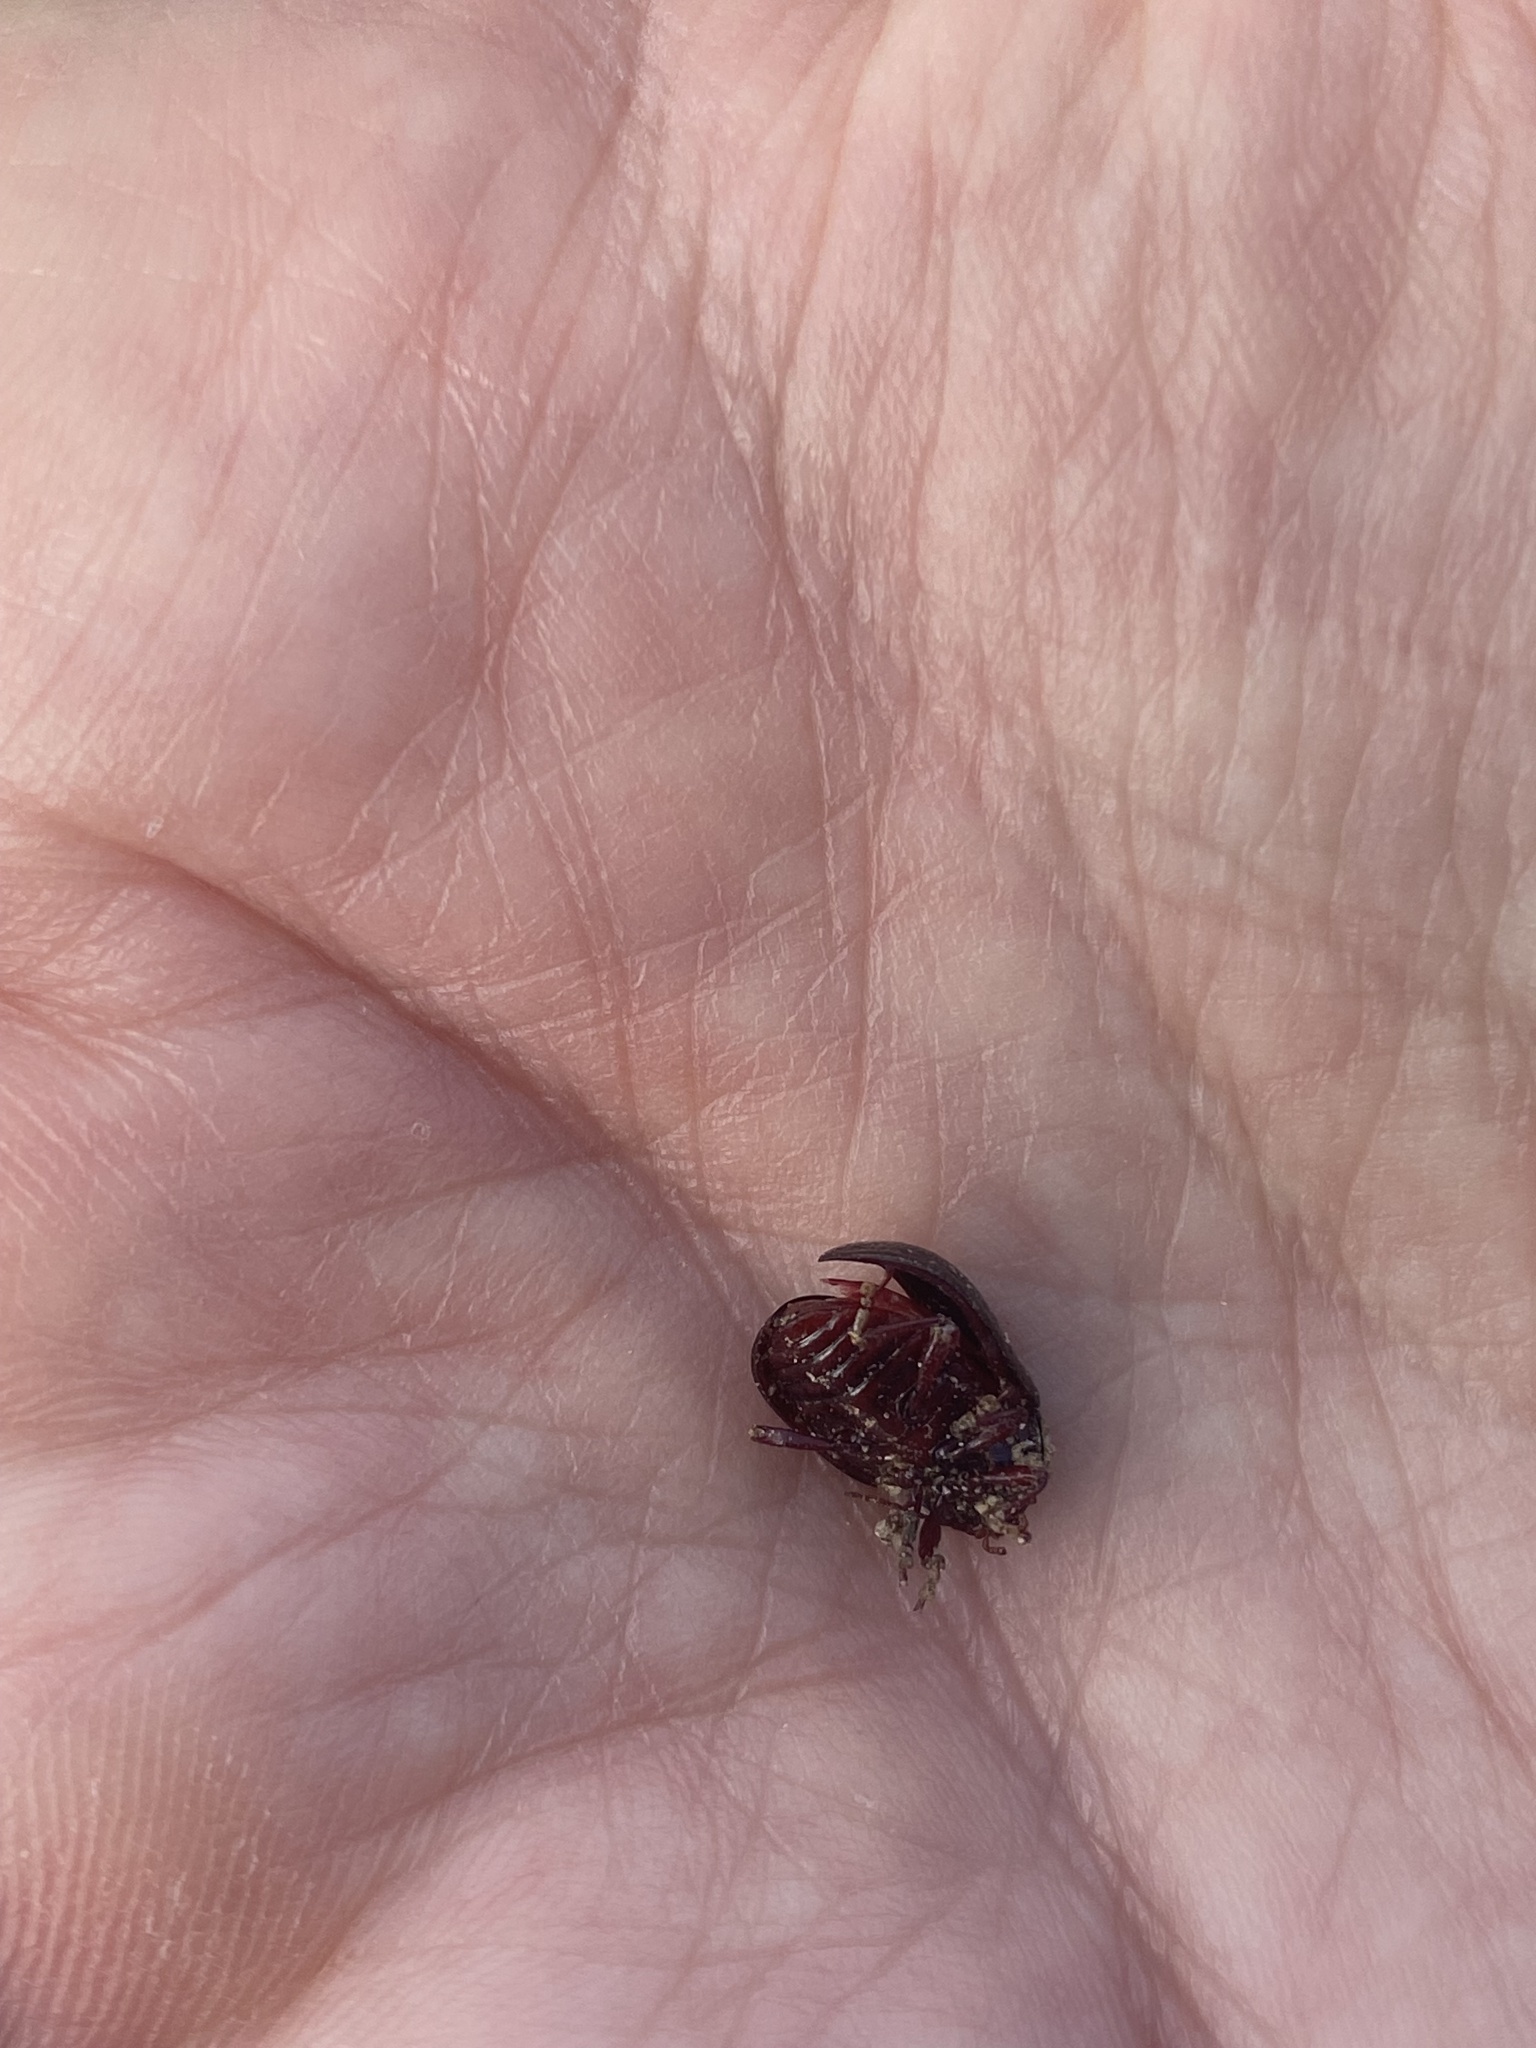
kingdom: Animalia
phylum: Arthropoda
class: Insecta
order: Coleoptera
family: Chrysomelidae
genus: Chrysolina
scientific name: Chrysolina bankii
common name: Leaf beetle
